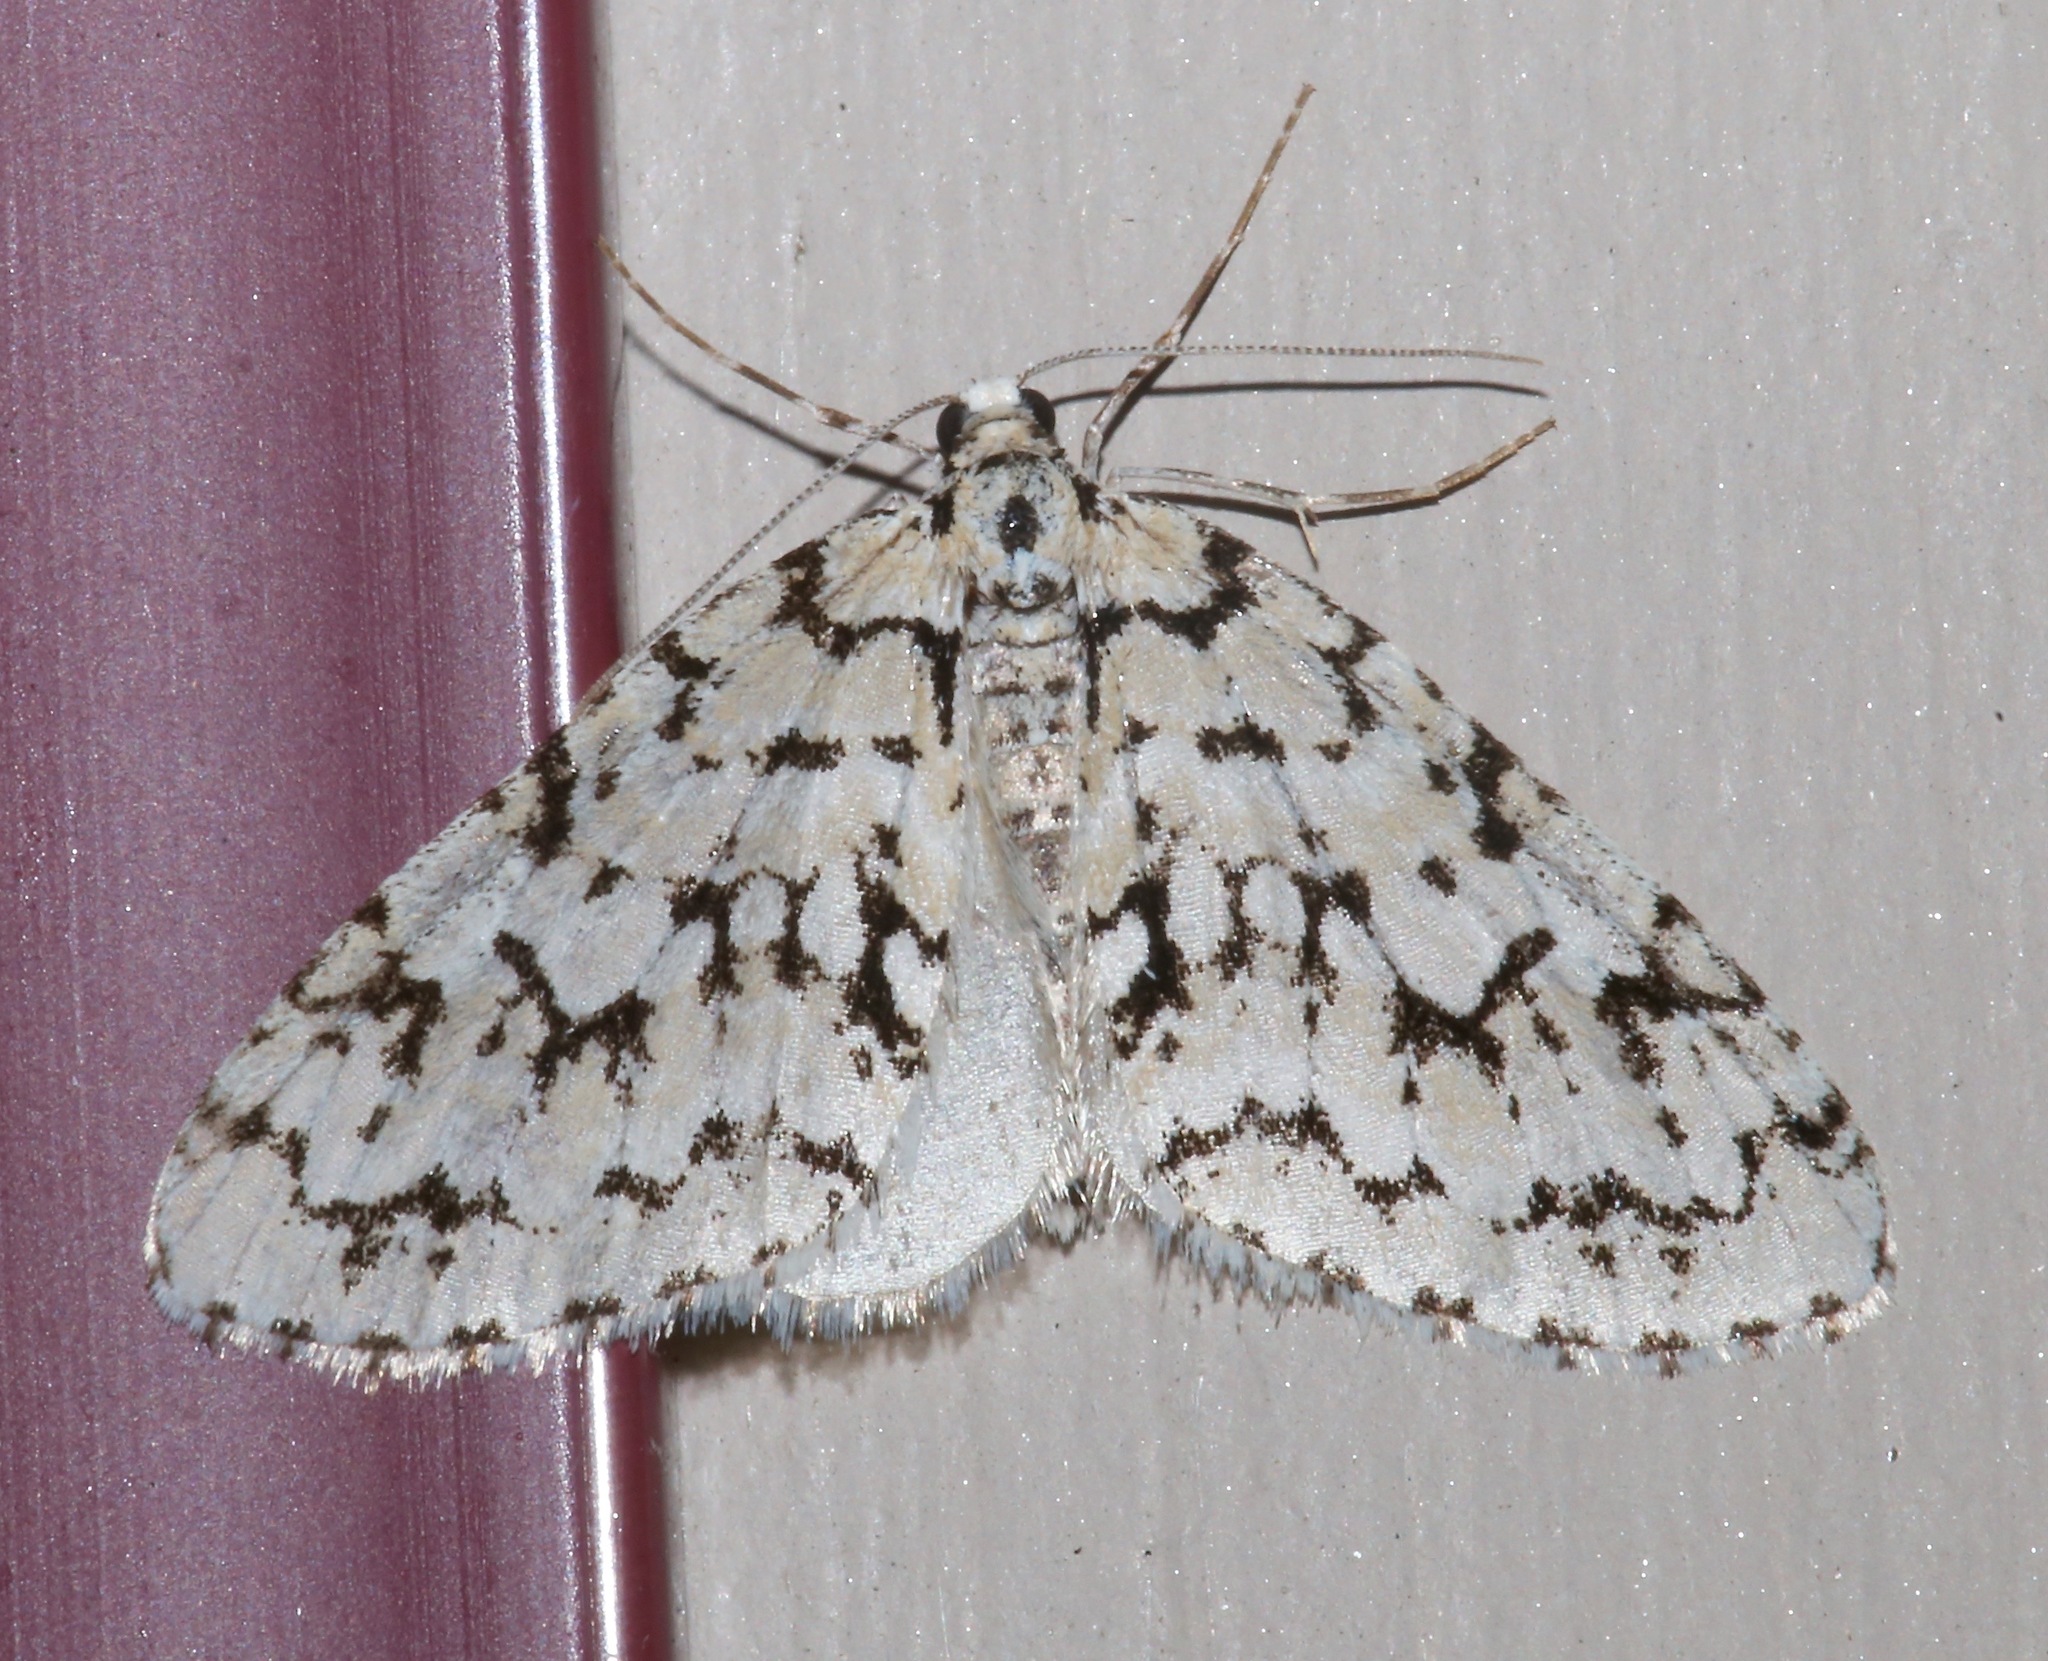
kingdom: Animalia
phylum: Arthropoda
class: Insecta
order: Lepidoptera
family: Geometridae
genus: Cladara
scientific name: Cladara atroliturata
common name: Scribbler
